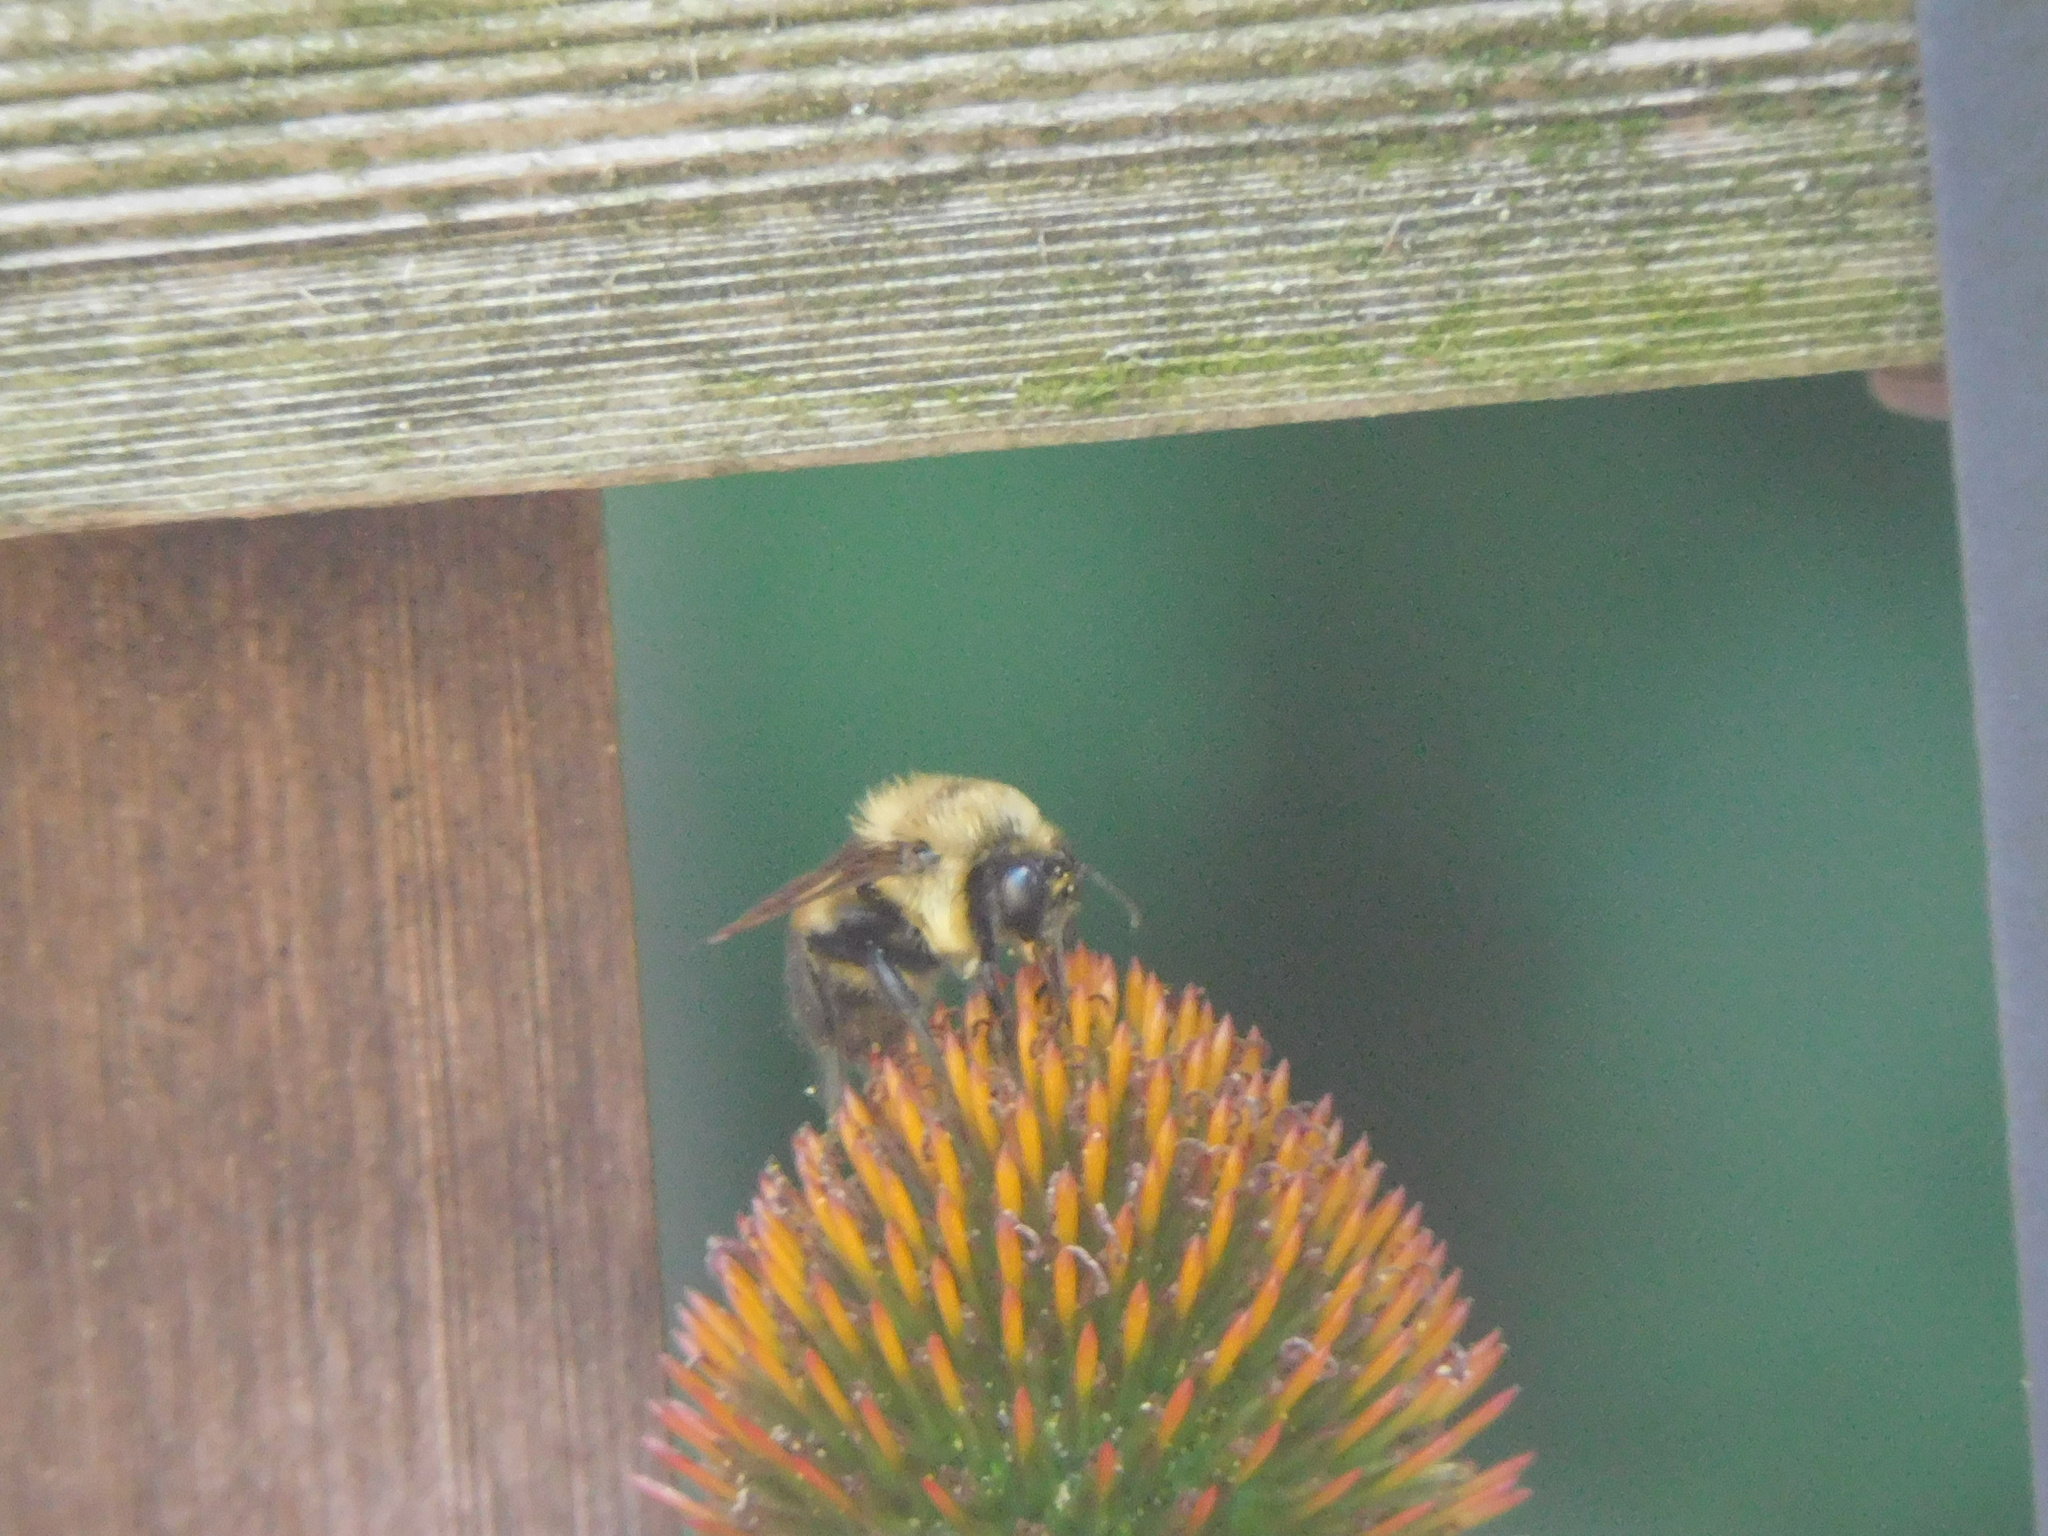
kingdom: Animalia
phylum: Arthropoda
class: Insecta
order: Hymenoptera
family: Apidae
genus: Bombus
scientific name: Bombus griseocollis
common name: Brown-belted bumble bee
